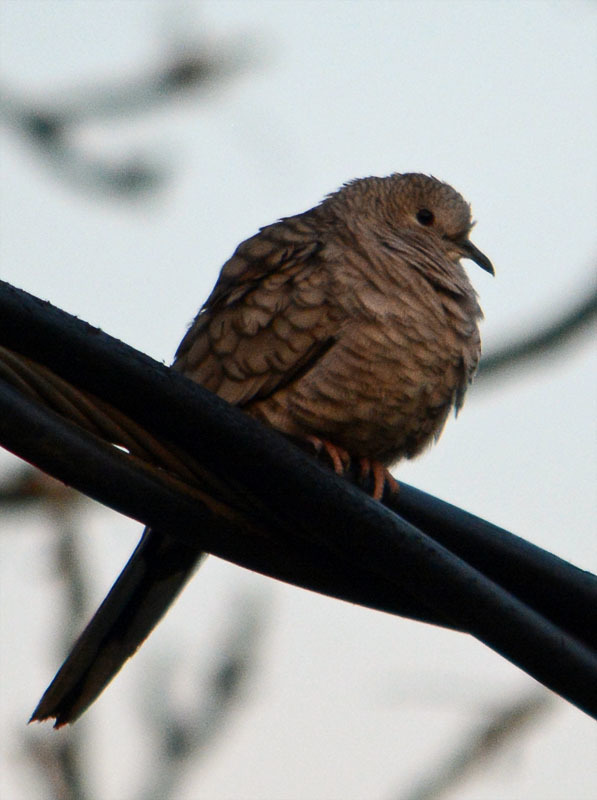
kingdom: Animalia
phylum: Chordata
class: Aves
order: Columbiformes
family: Columbidae
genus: Columbina
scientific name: Columbina inca
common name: Inca dove
